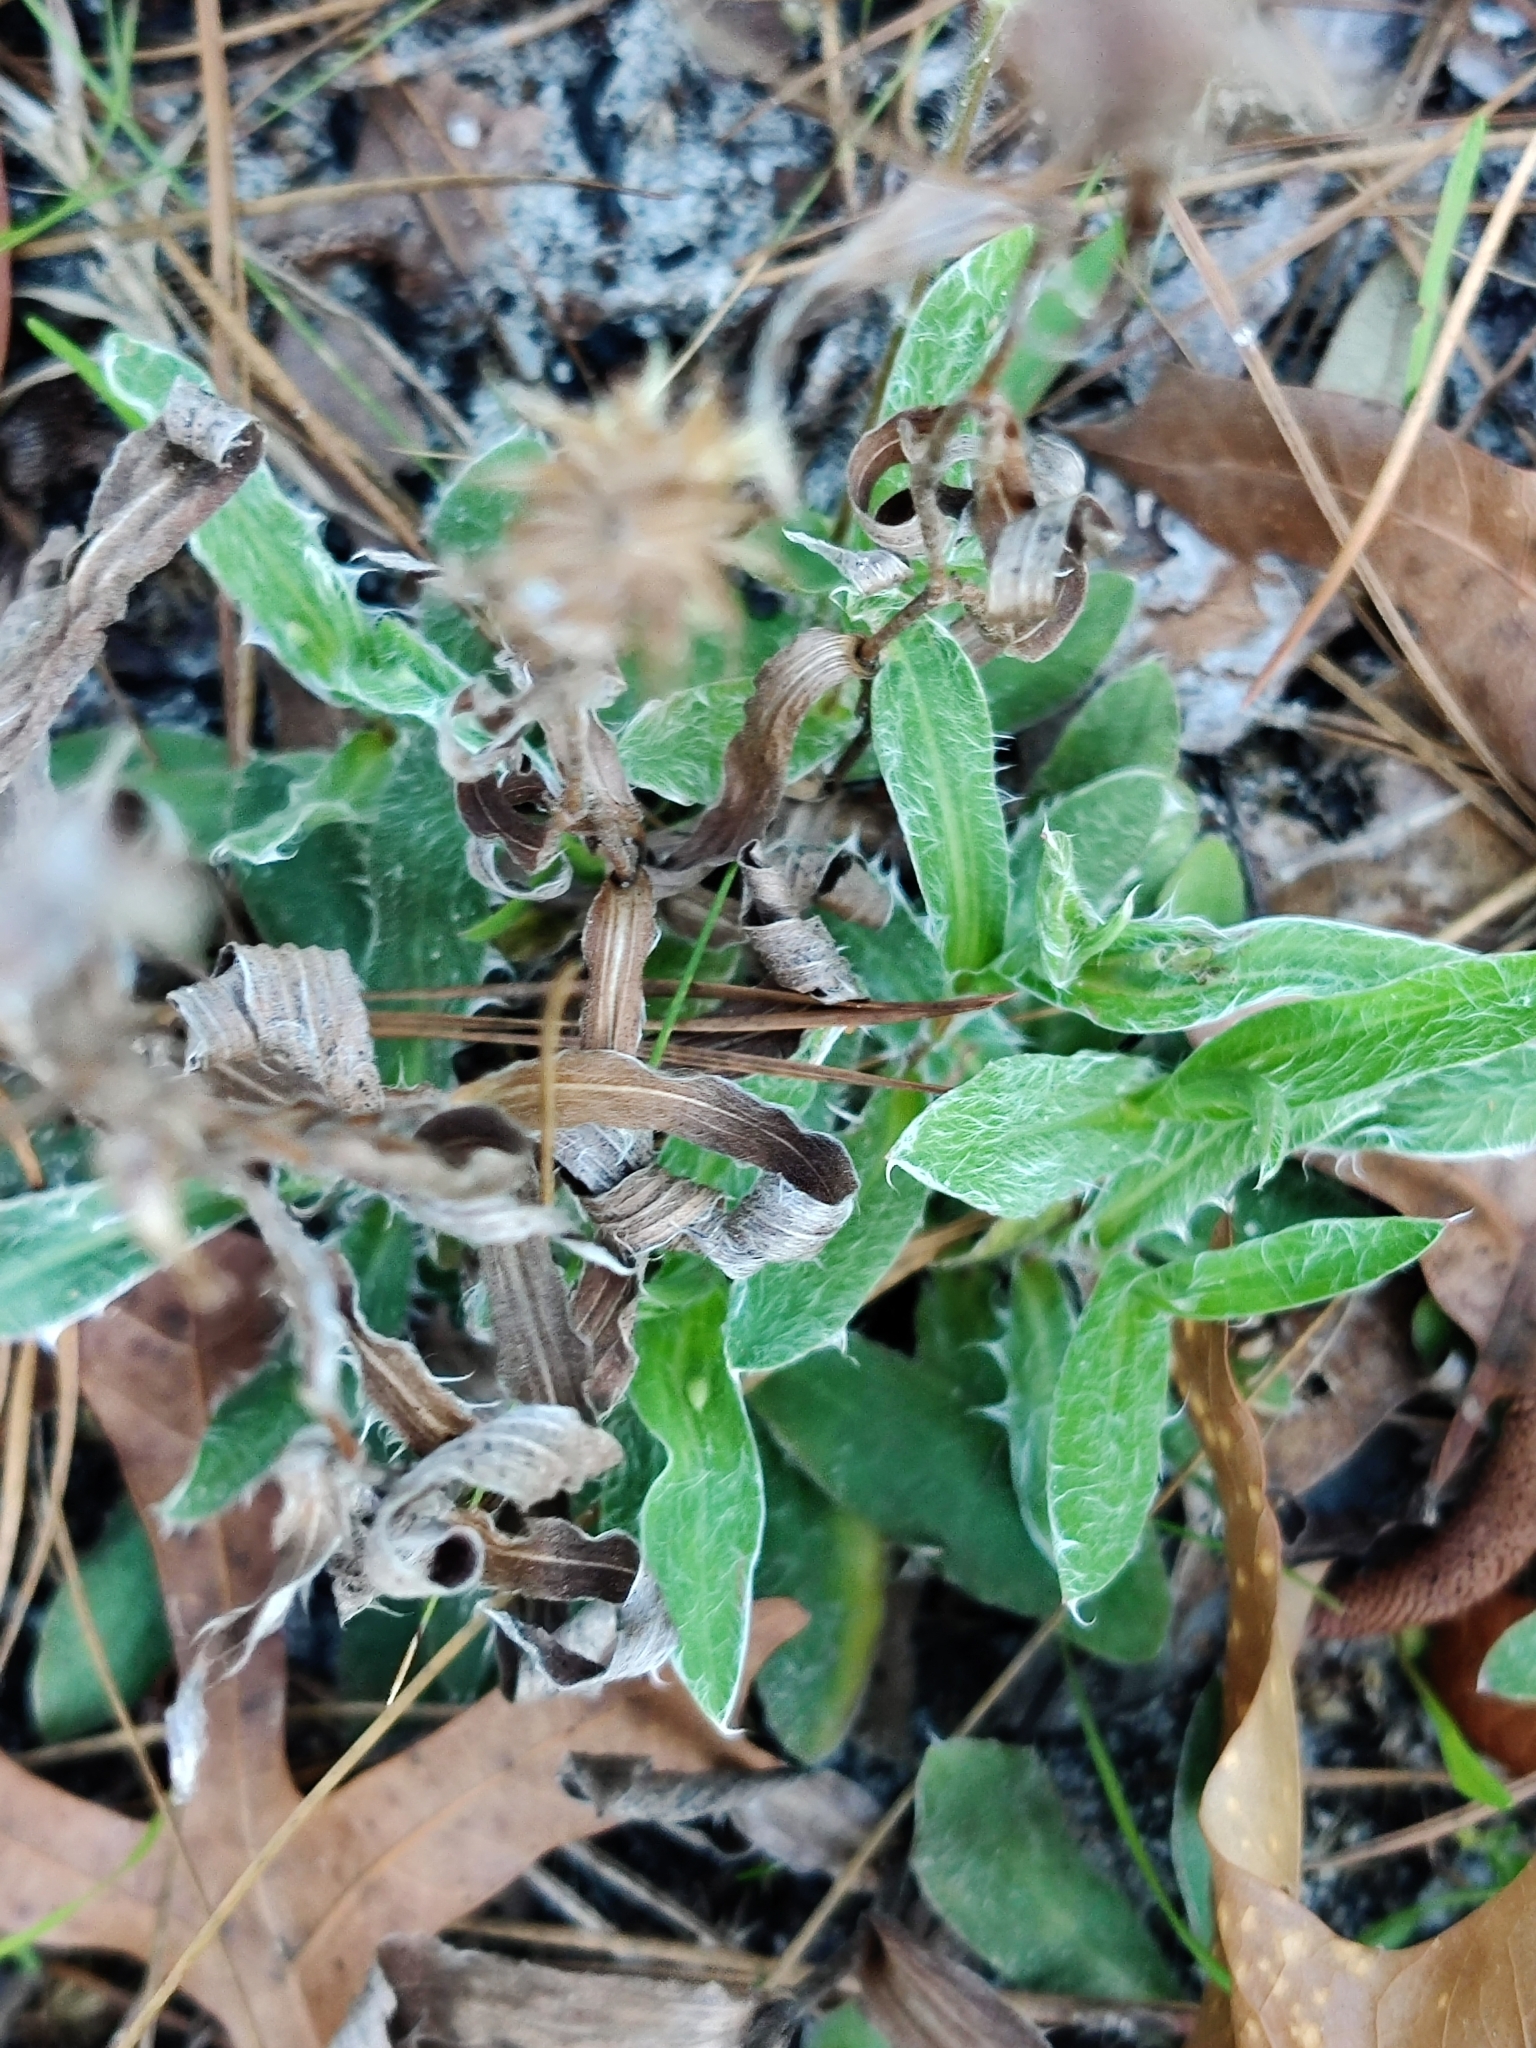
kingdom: Plantae
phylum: Tracheophyta
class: Magnoliopsida
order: Asterales
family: Asteraceae
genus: Pityopsis
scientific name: Pityopsis flexuosa
